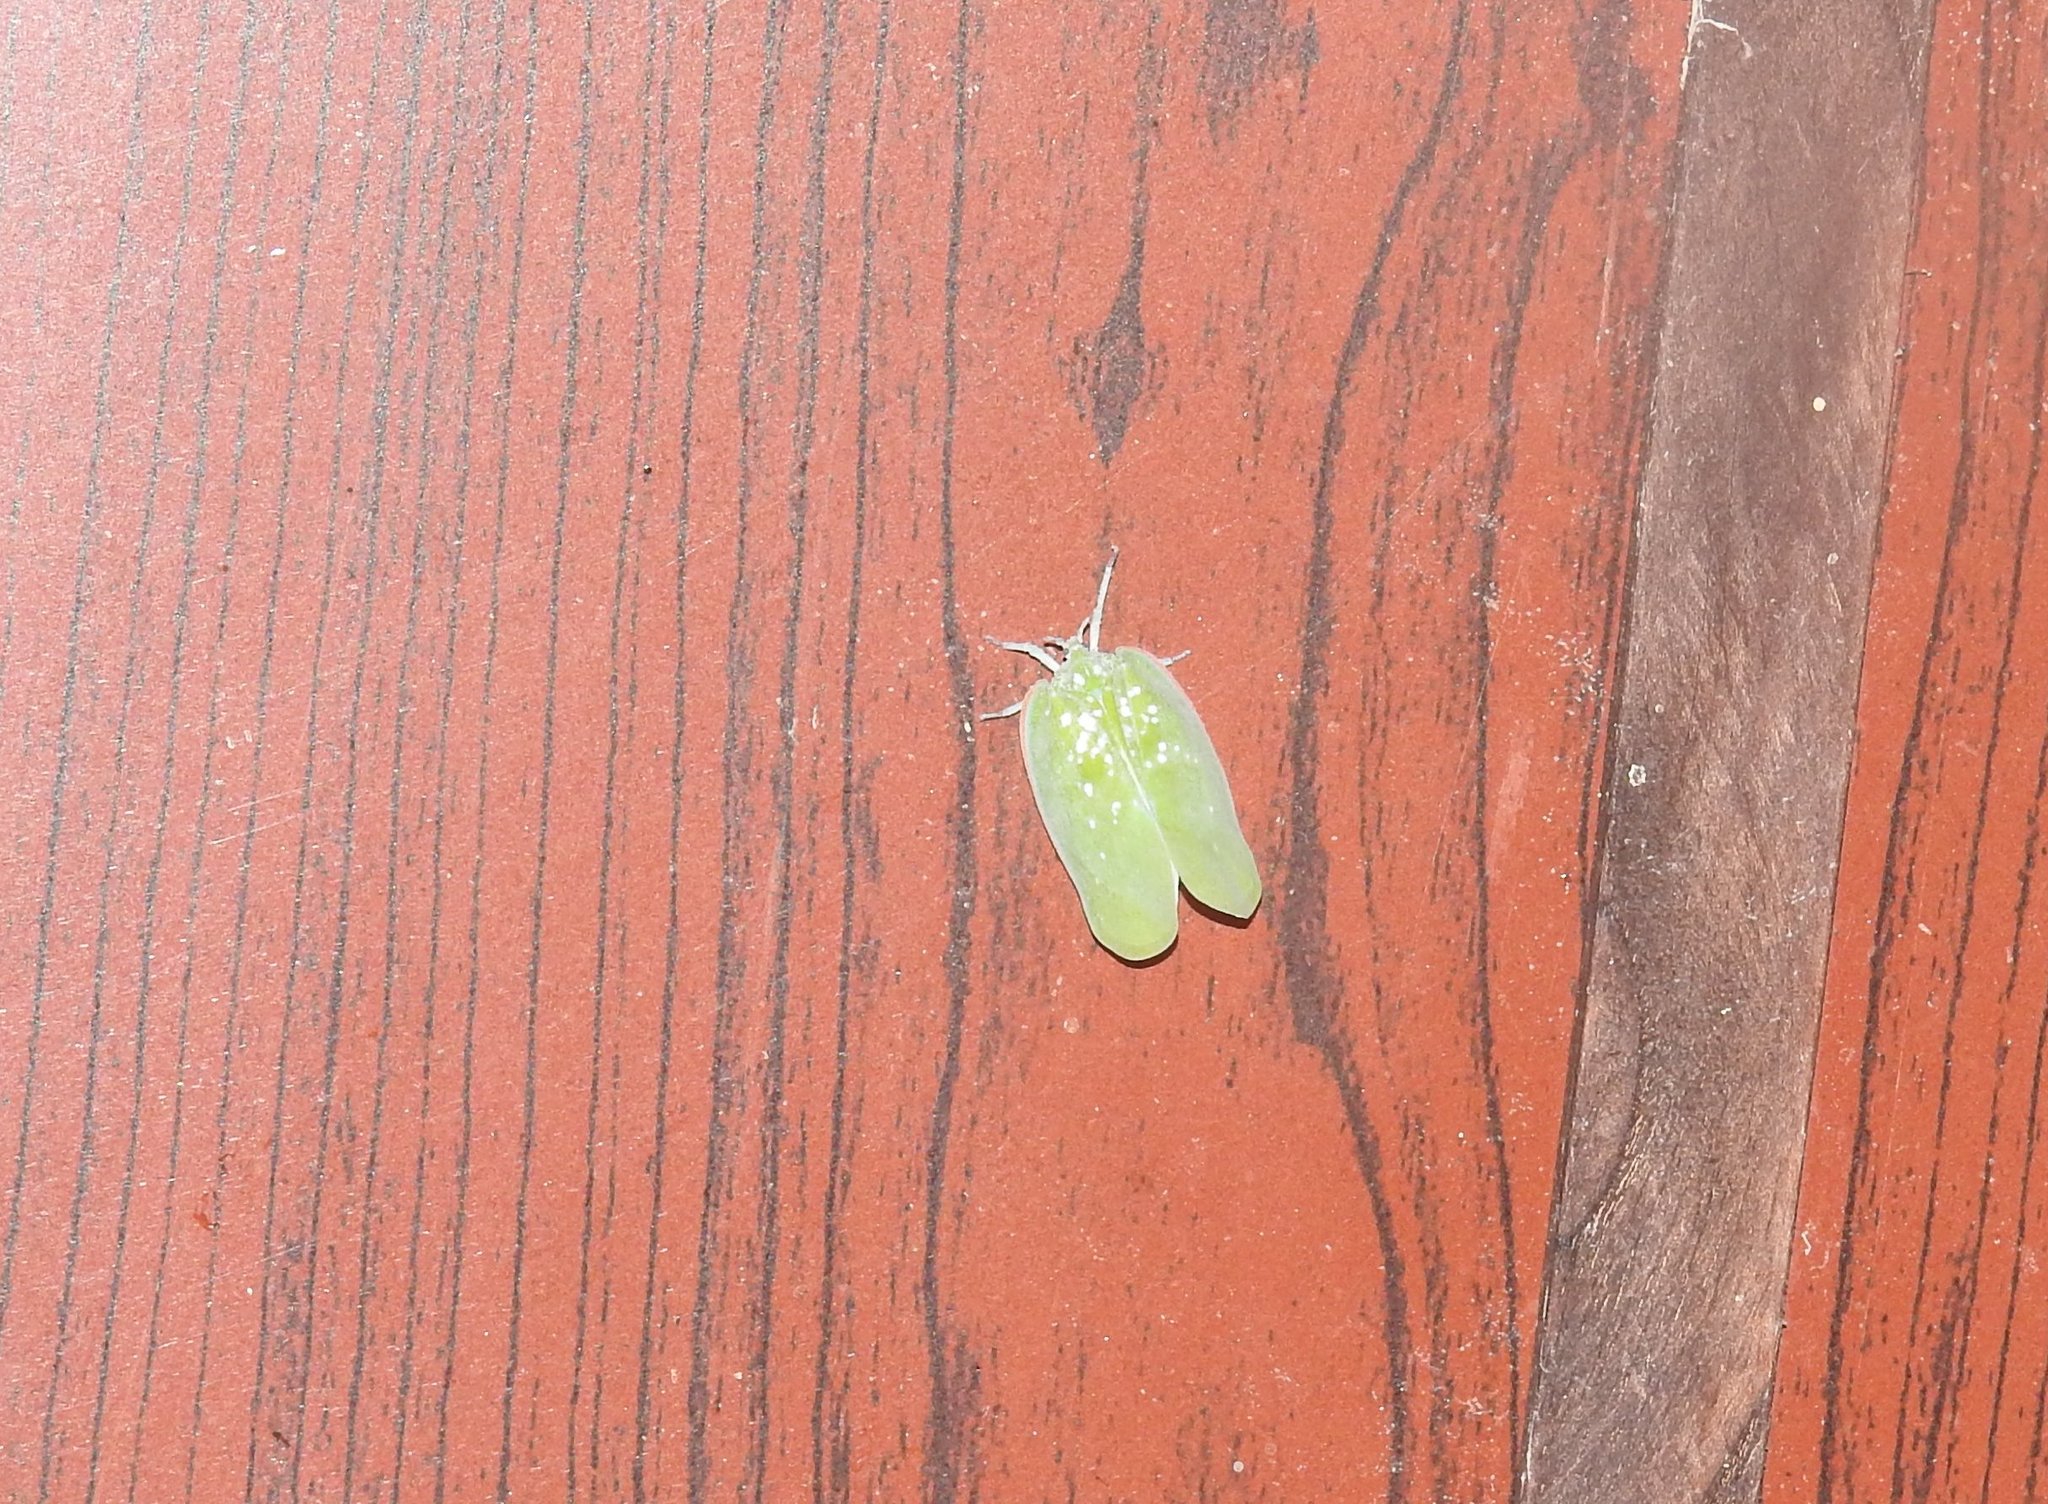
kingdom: Animalia
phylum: Arthropoda
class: Insecta
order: Hemiptera
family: Flatidae
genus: Flatida
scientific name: Flatida marginella
